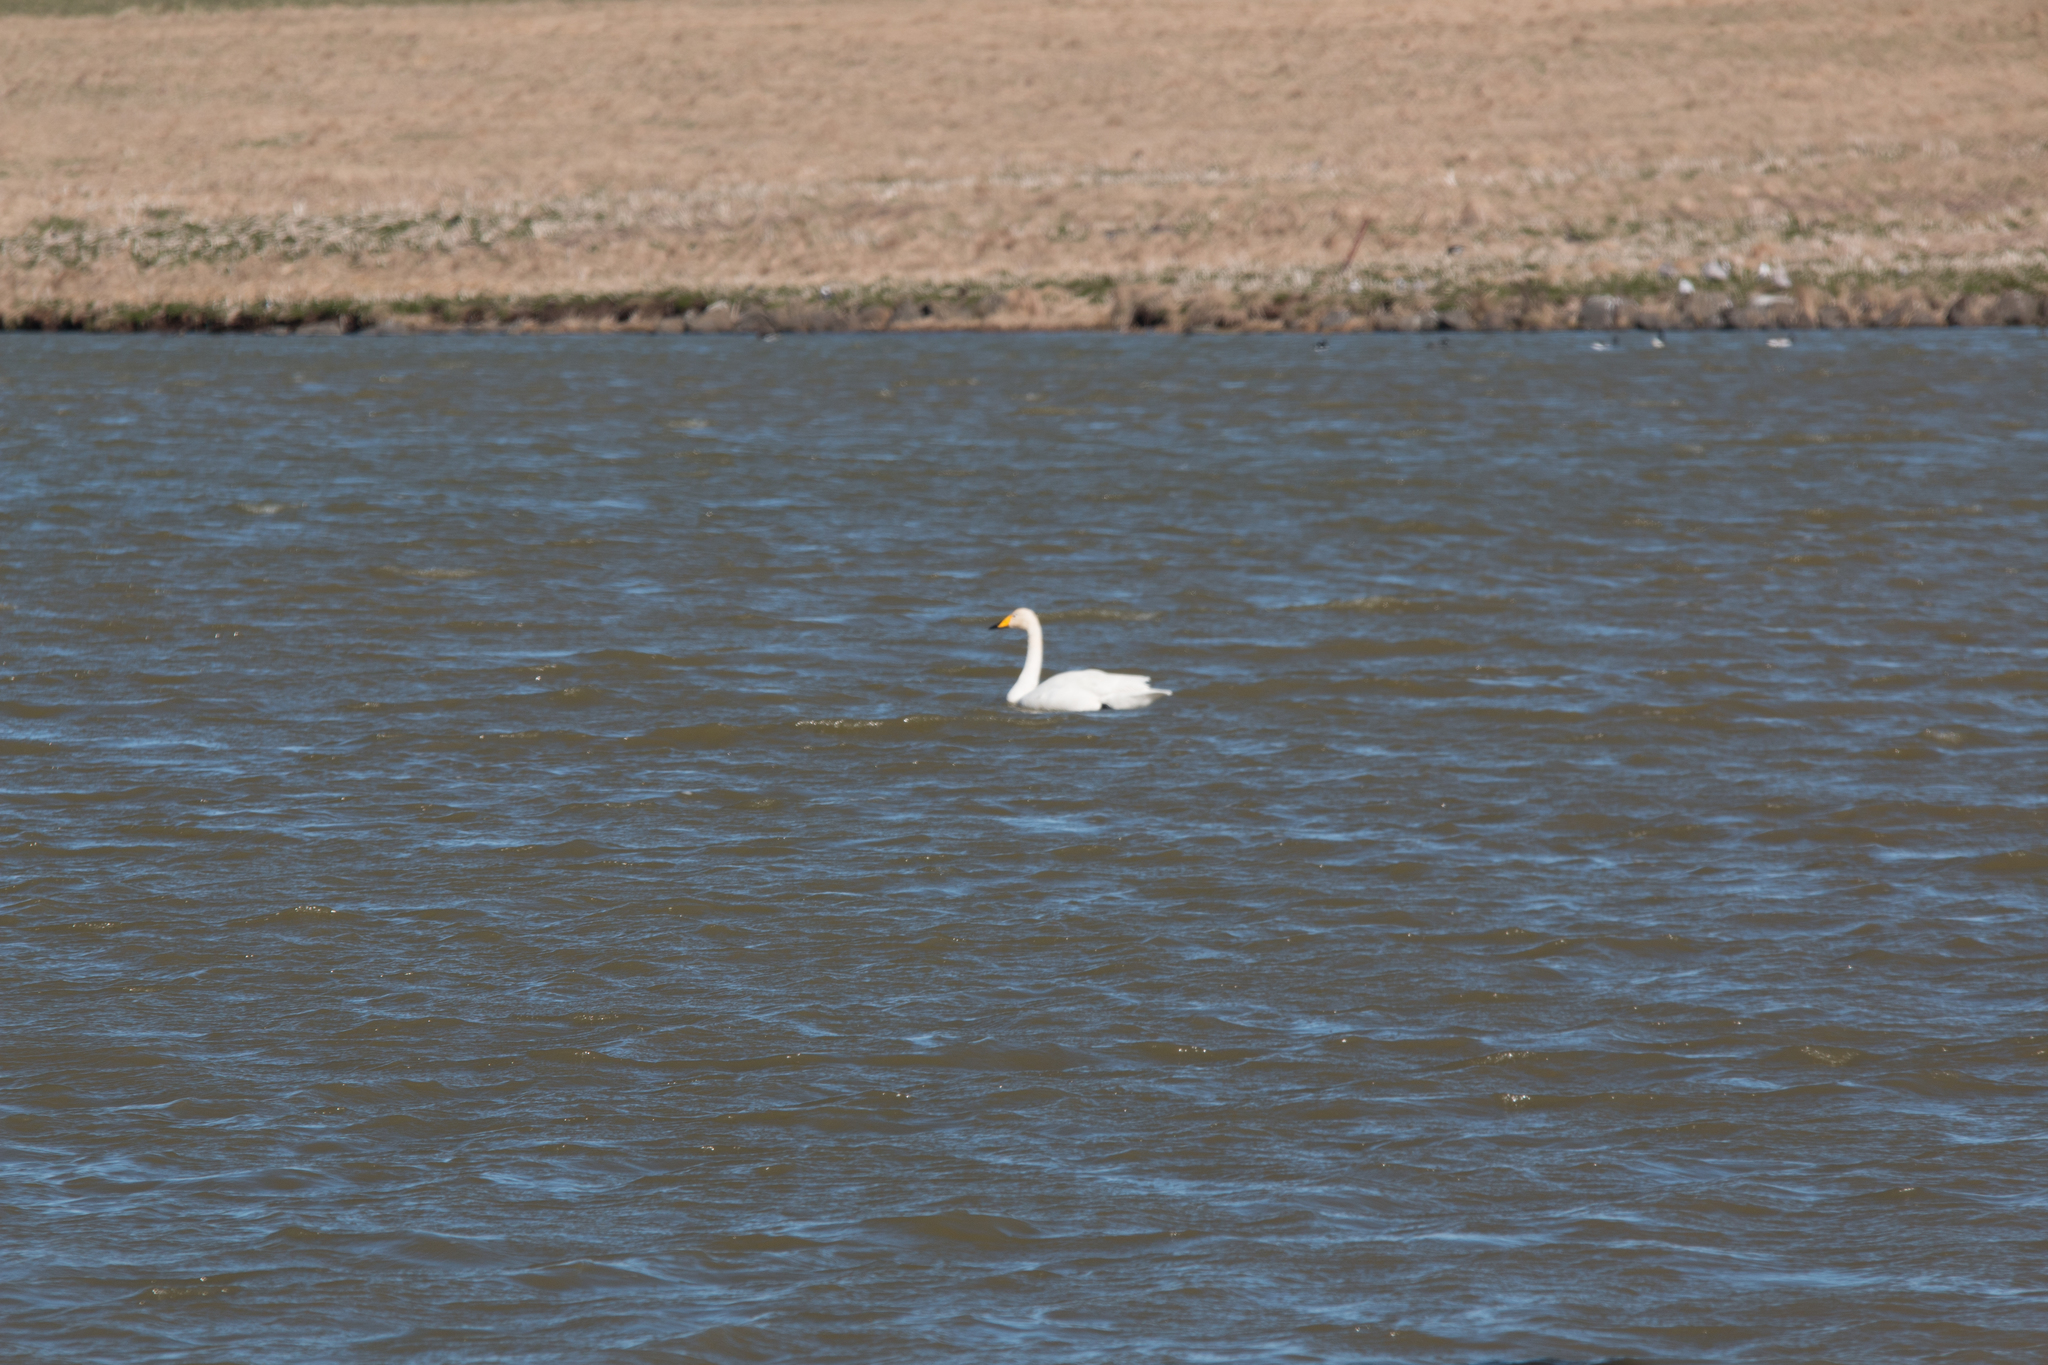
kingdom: Animalia
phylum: Chordata
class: Aves
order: Anseriformes
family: Anatidae
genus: Cygnus
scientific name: Cygnus cygnus
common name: Whooper swan
